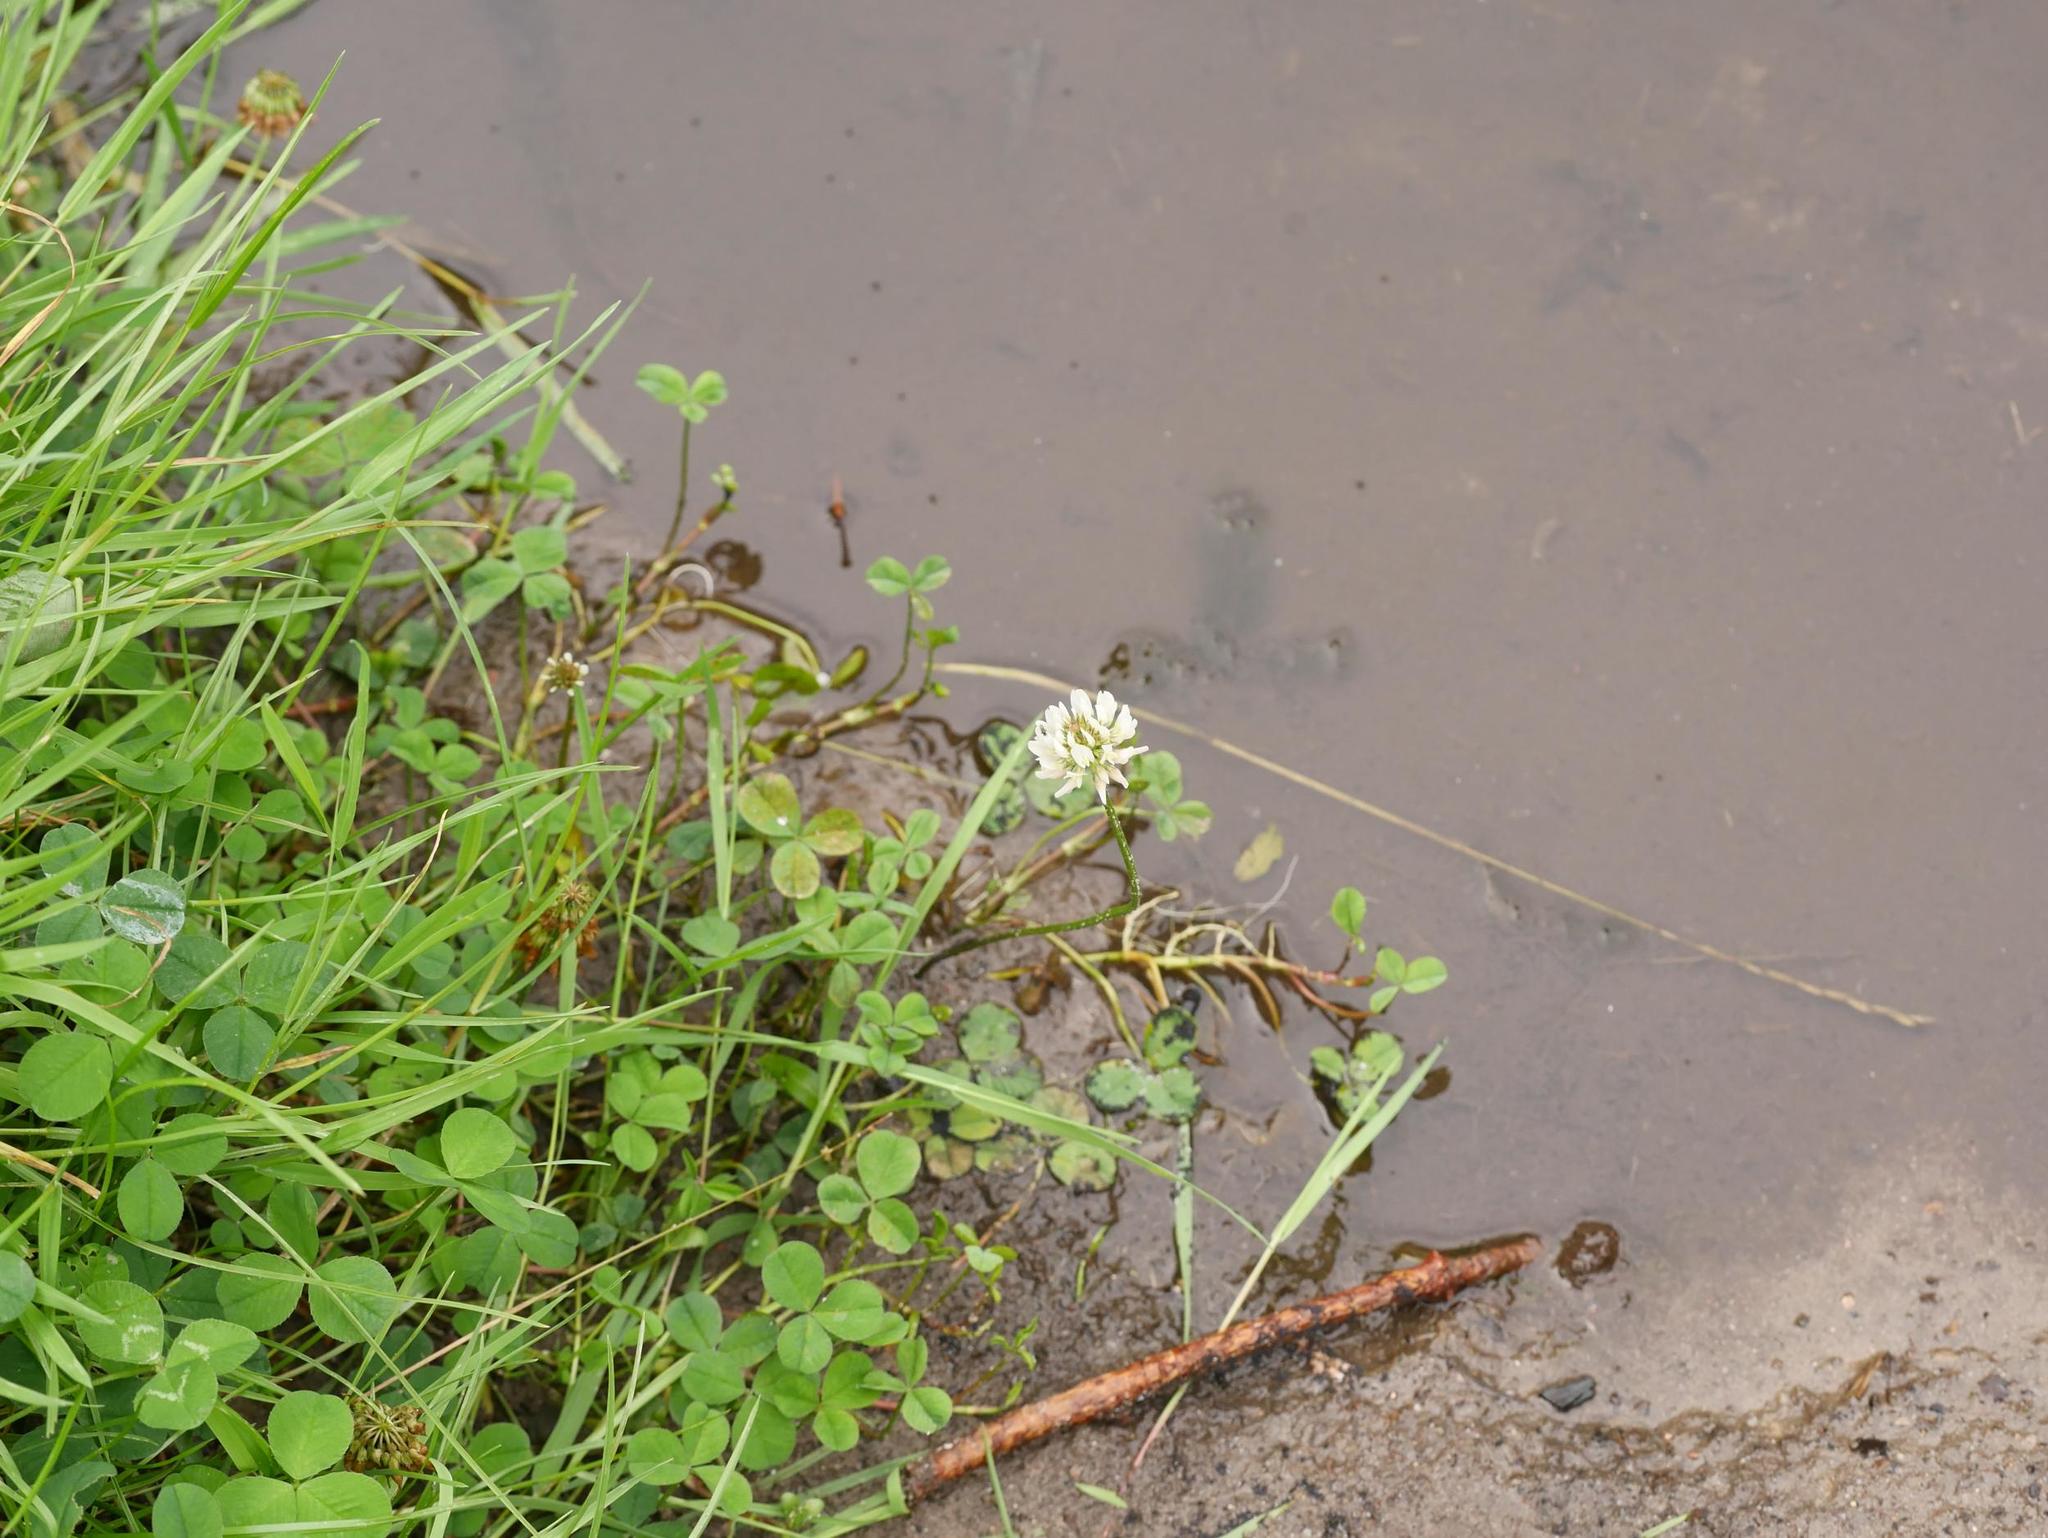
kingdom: Plantae
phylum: Tracheophyta
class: Magnoliopsida
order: Fabales
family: Fabaceae
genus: Trifolium
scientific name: Trifolium repens
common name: White clover
